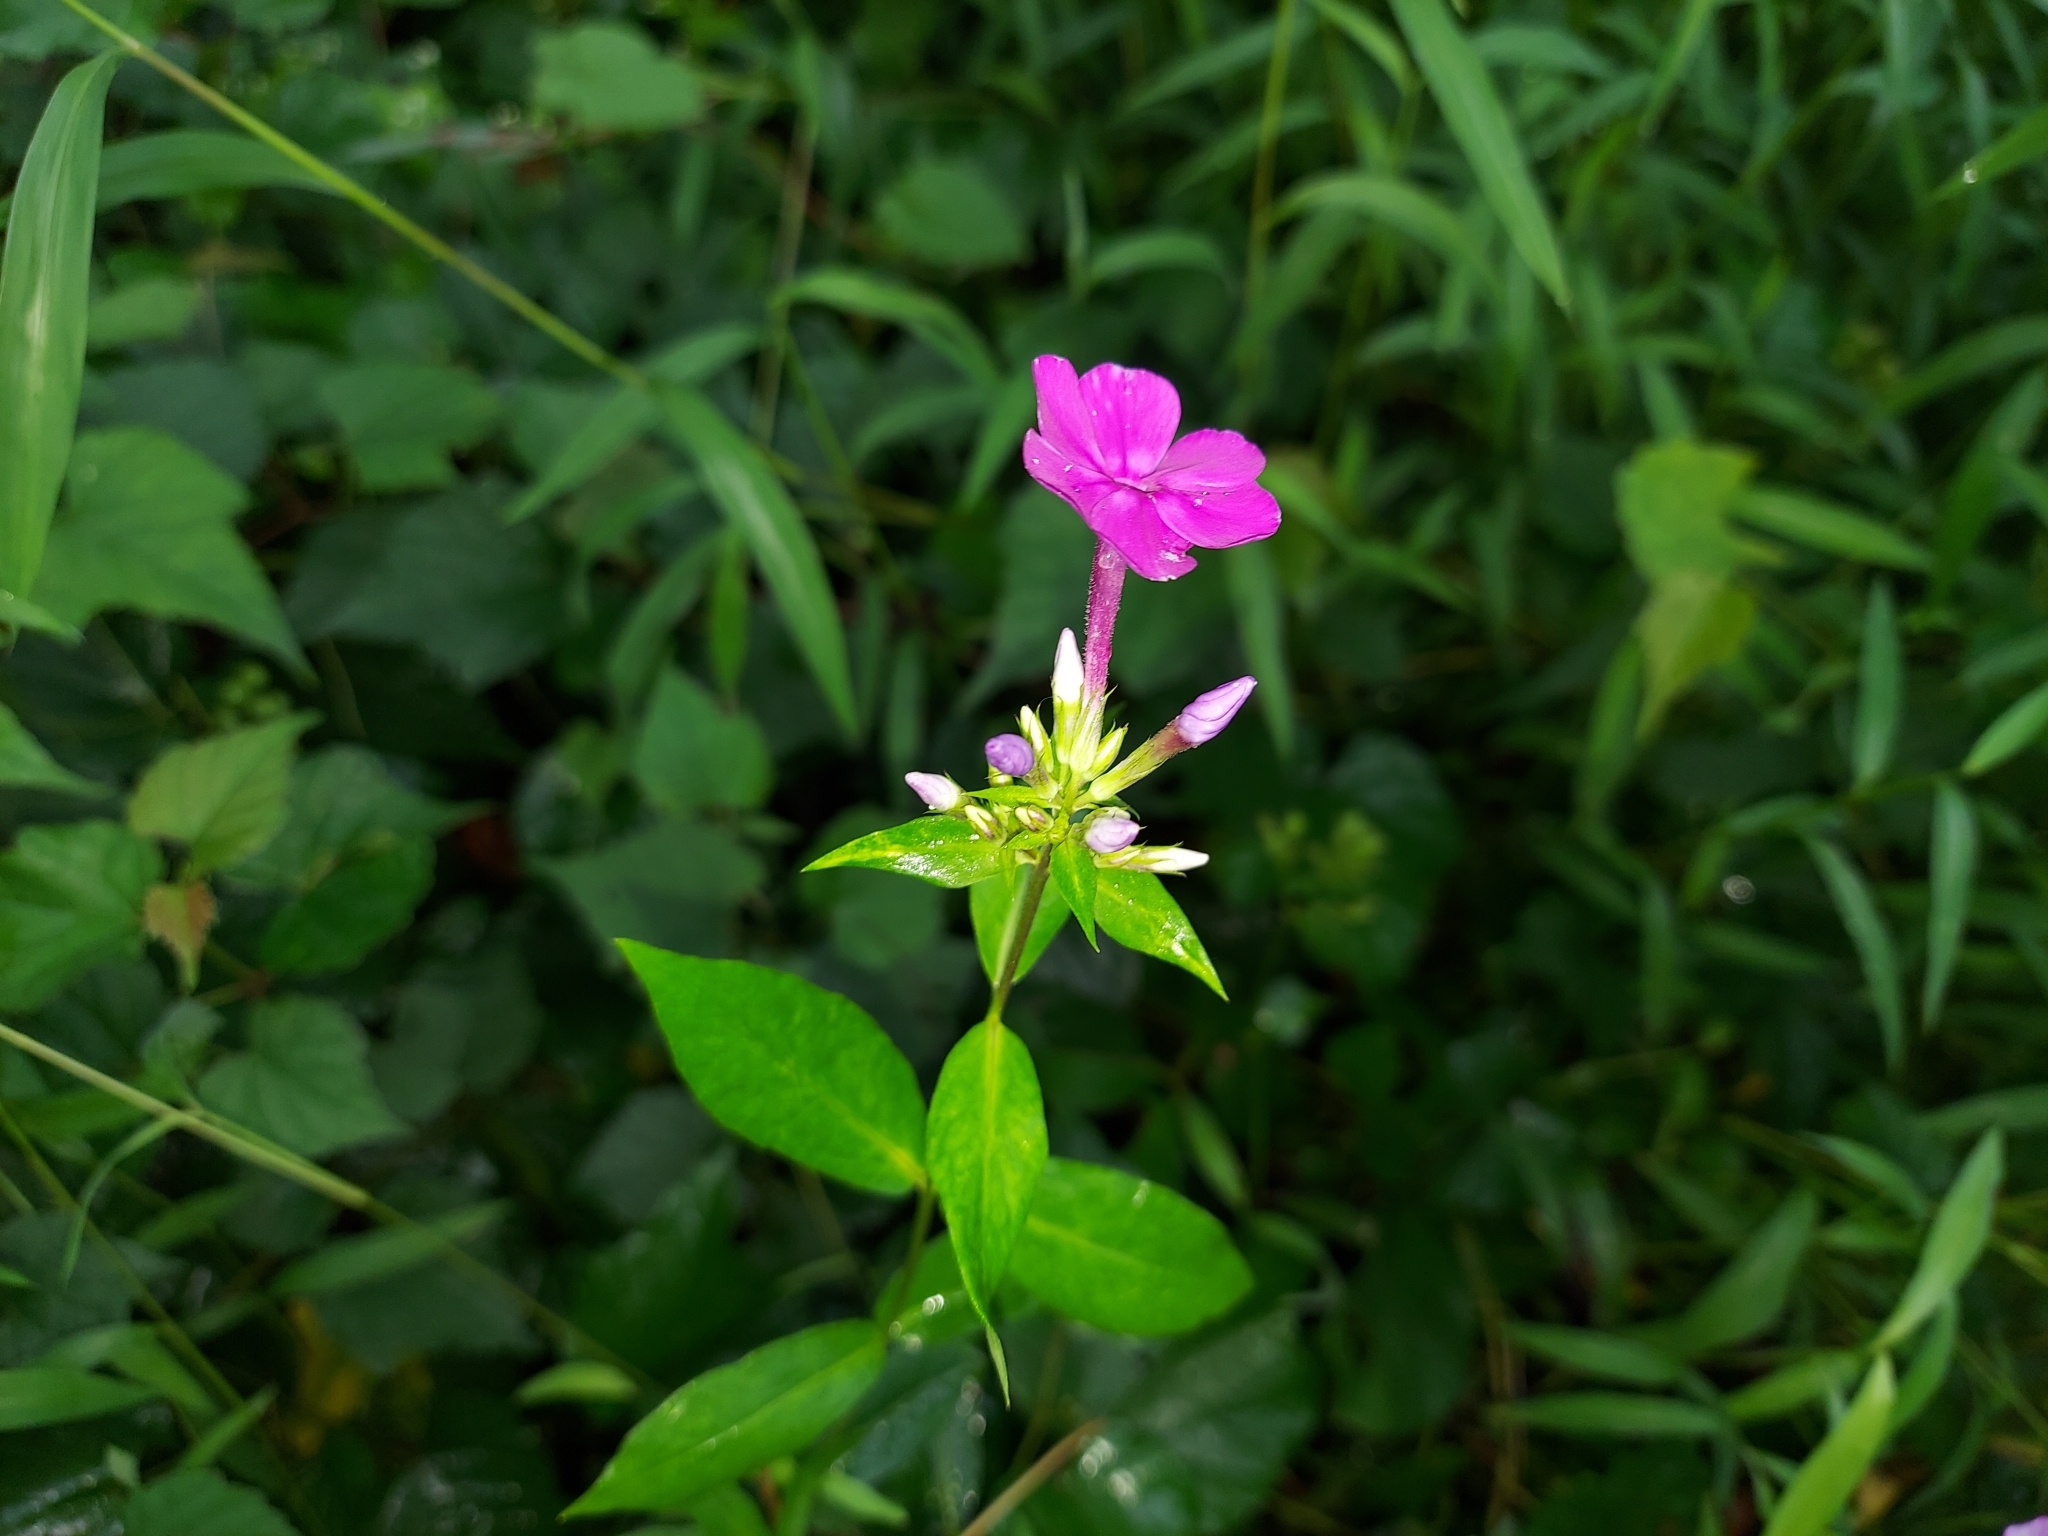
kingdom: Plantae
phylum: Tracheophyta
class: Magnoliopsida
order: Ericales
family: Polemoniaceae
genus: Phlox
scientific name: Phlox paniculata
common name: Fall phlox
